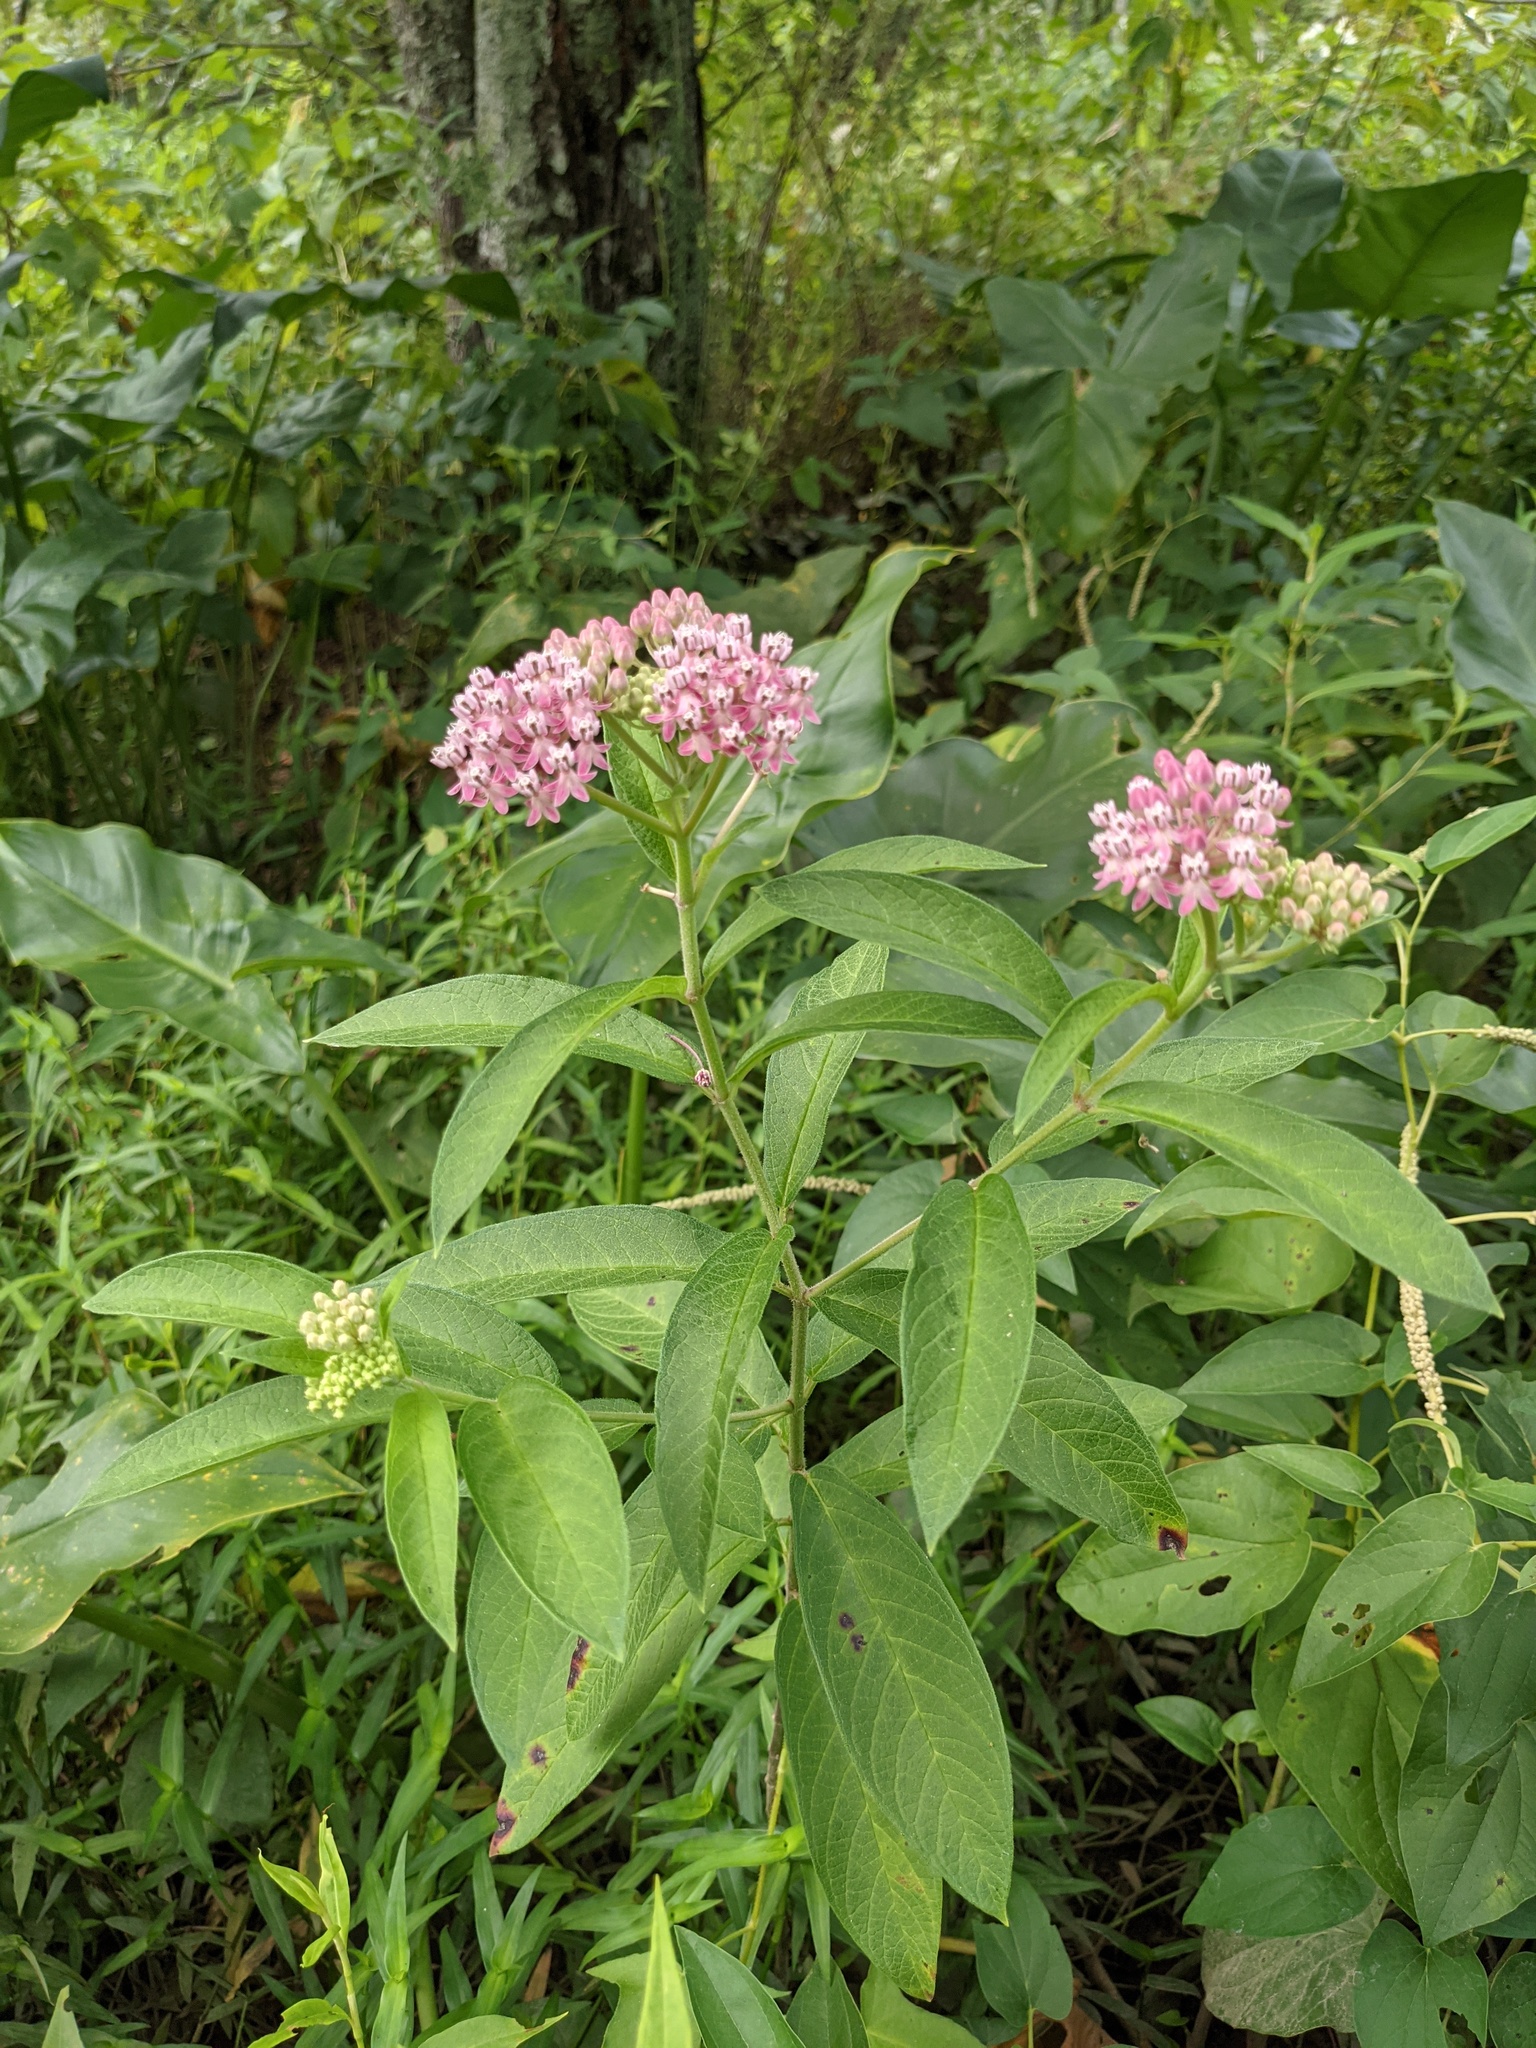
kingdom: Plantae
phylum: Tracheophyta
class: Magnoliopsida
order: Gentianales
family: Apocynaceae
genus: Asclepias
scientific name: Asclepias incarnata
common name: Swamp milkweed
